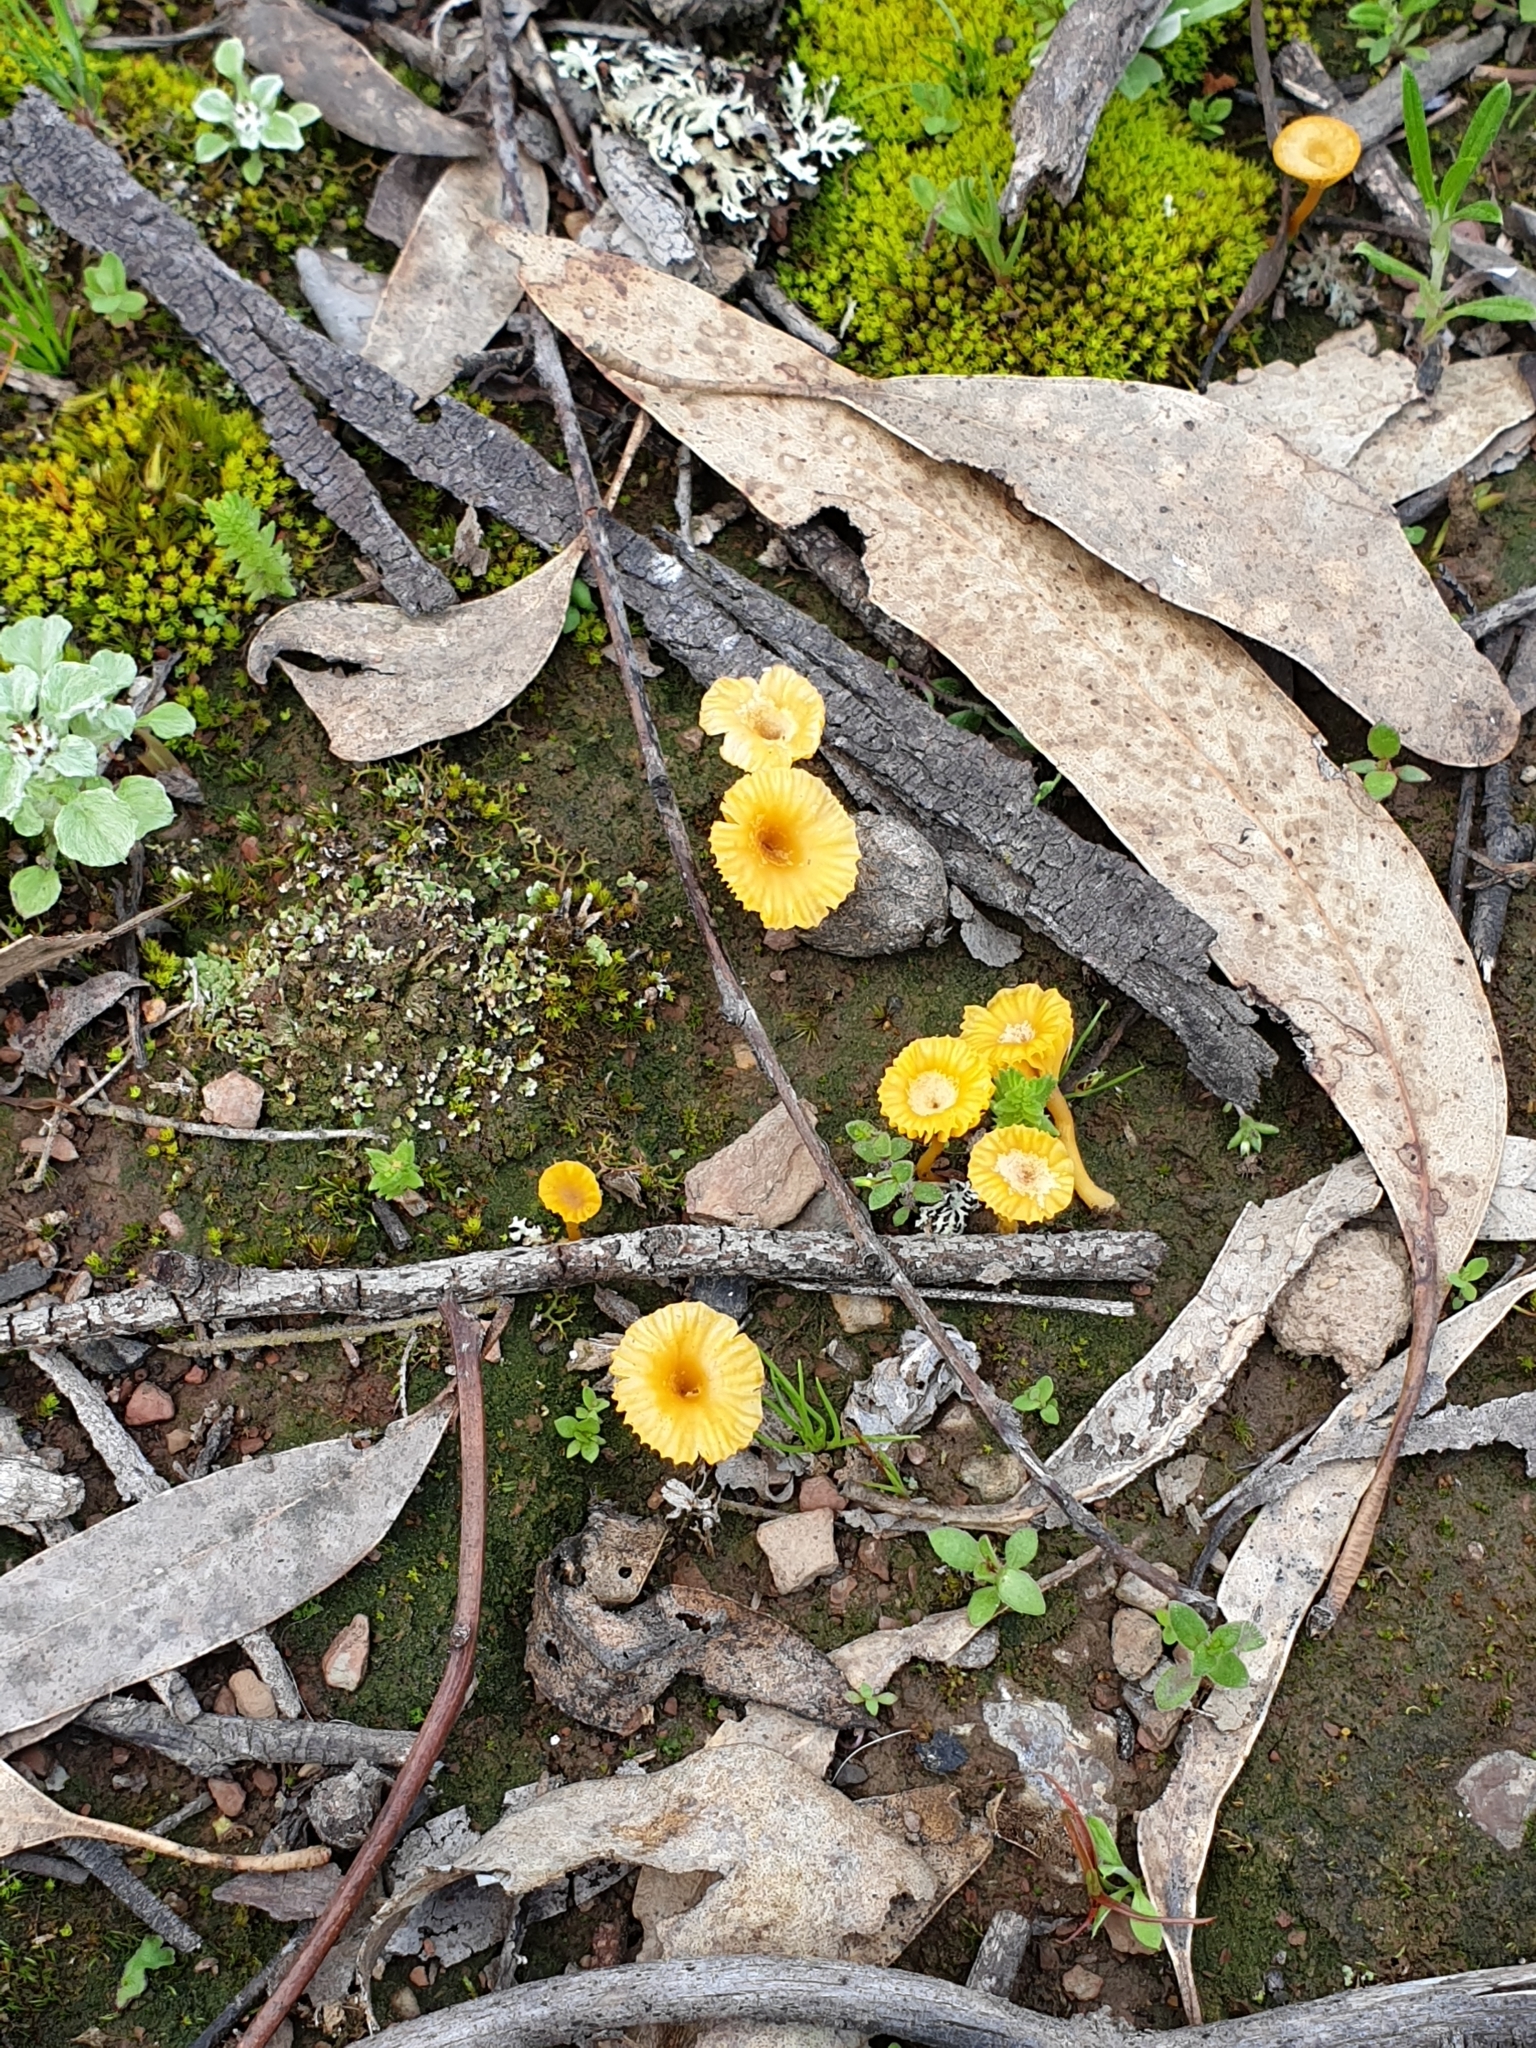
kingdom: Fungi
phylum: Basidiomycota
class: Agaricomycetes
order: Agaricales
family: Hygrophoraceae
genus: Lichenomphalia
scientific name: Lichenomphalia chromacea
